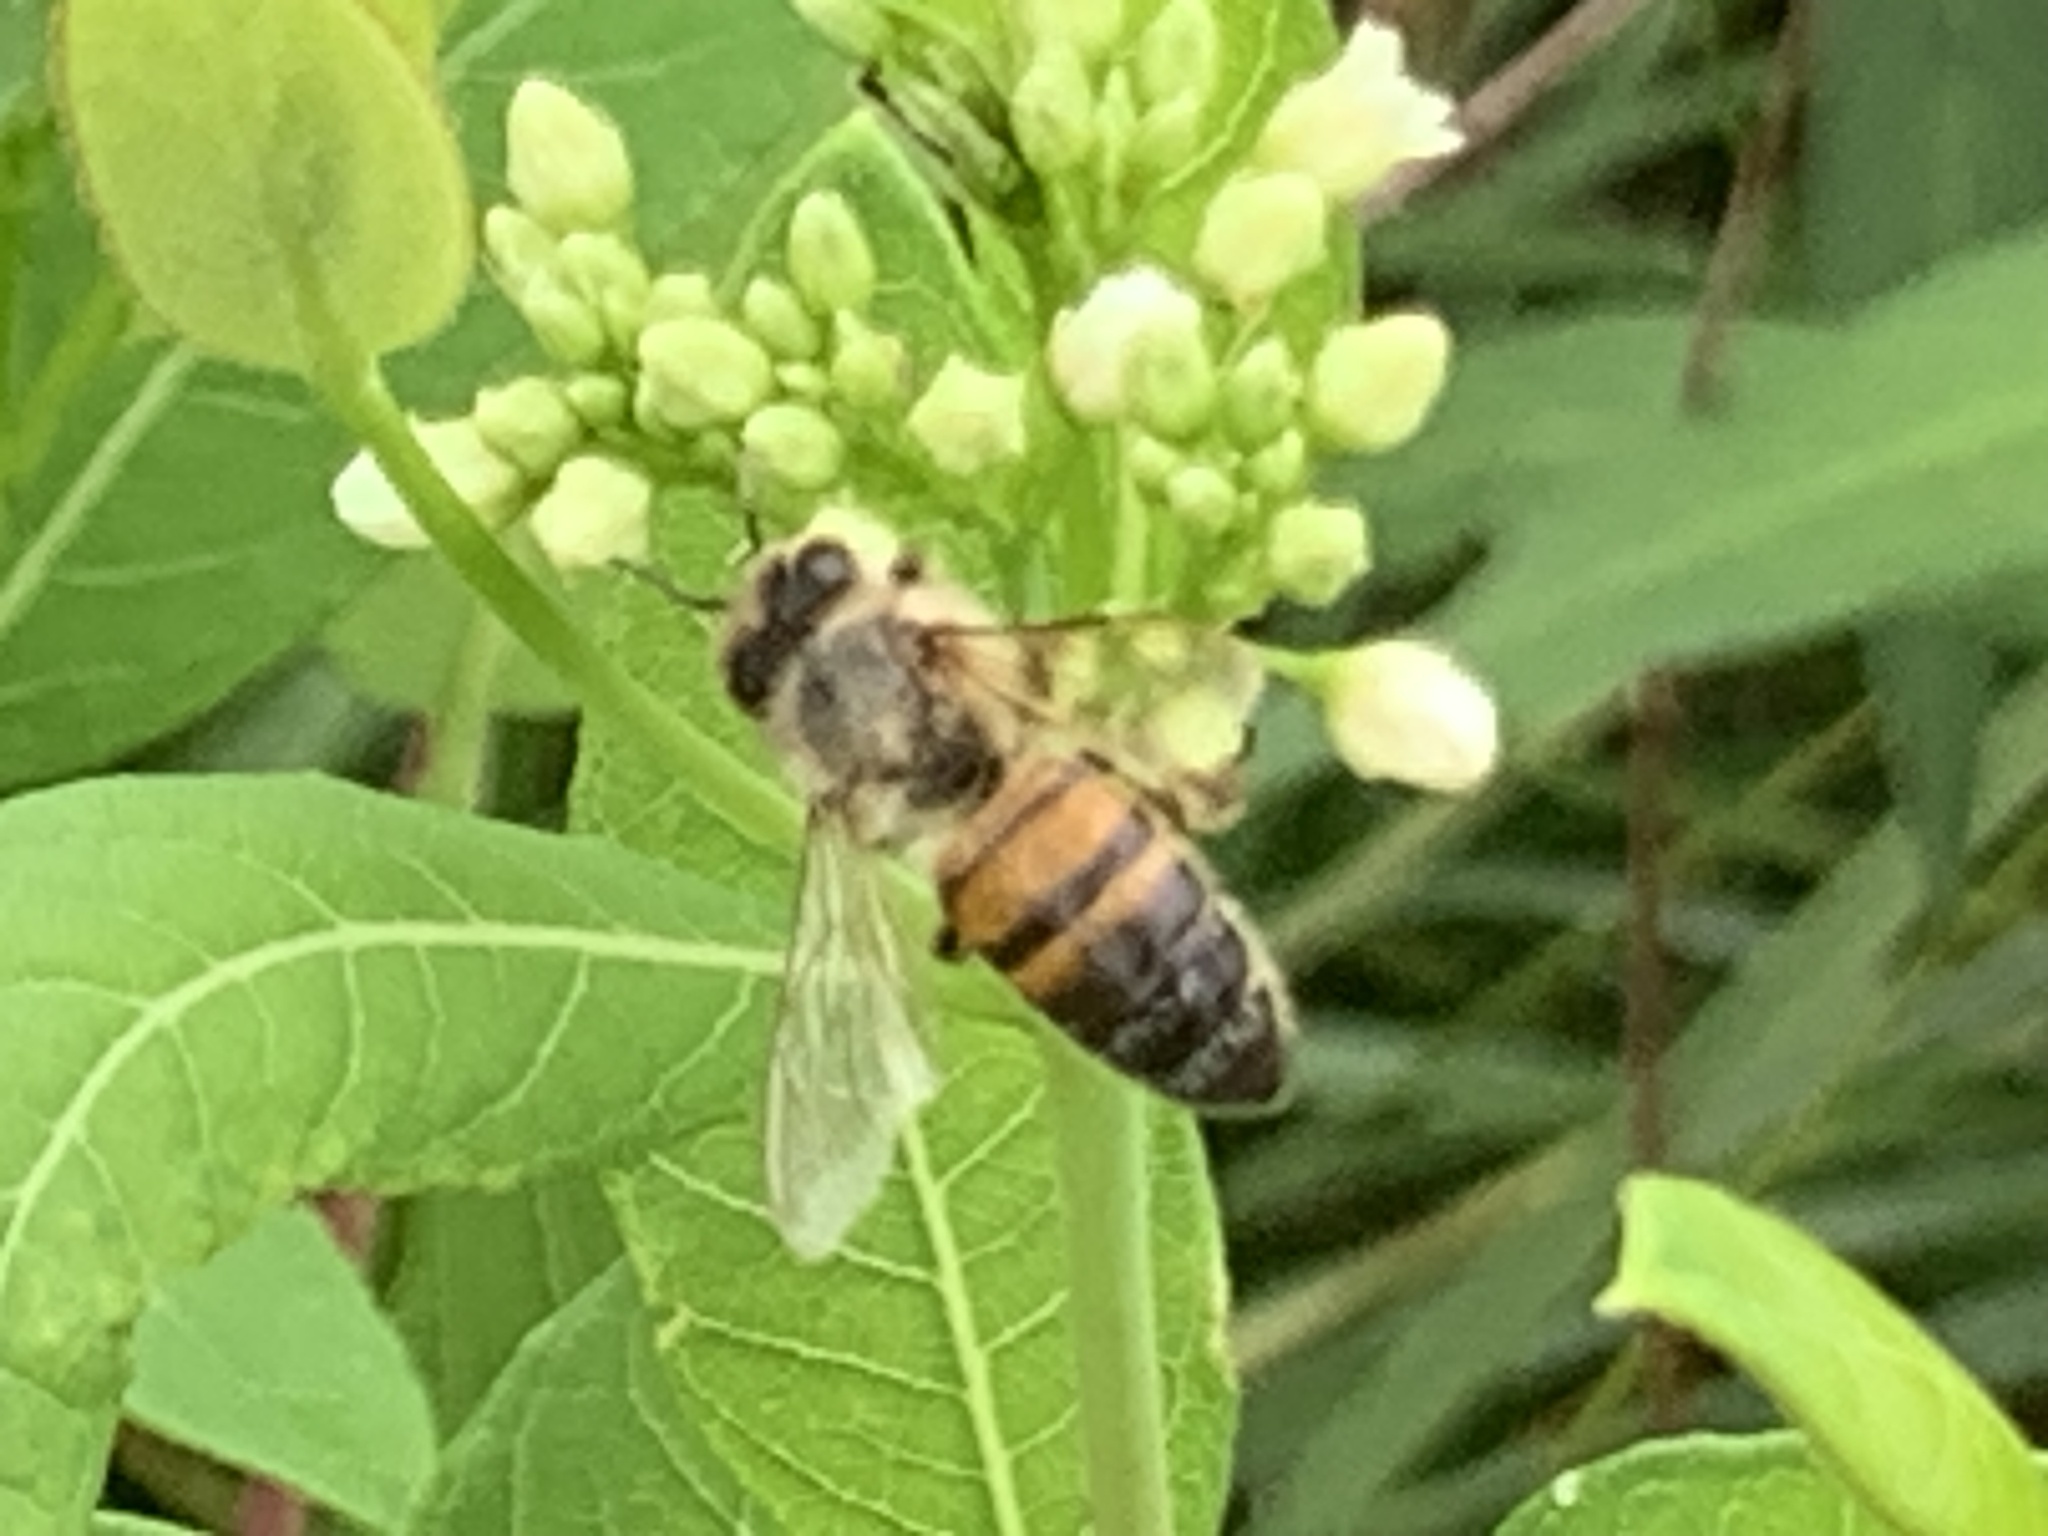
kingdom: Animalia
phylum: Arthropoda
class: Insecta
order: Hymenoptera
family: Apidae
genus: Apis
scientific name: Apis mellifera
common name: Honey bee
